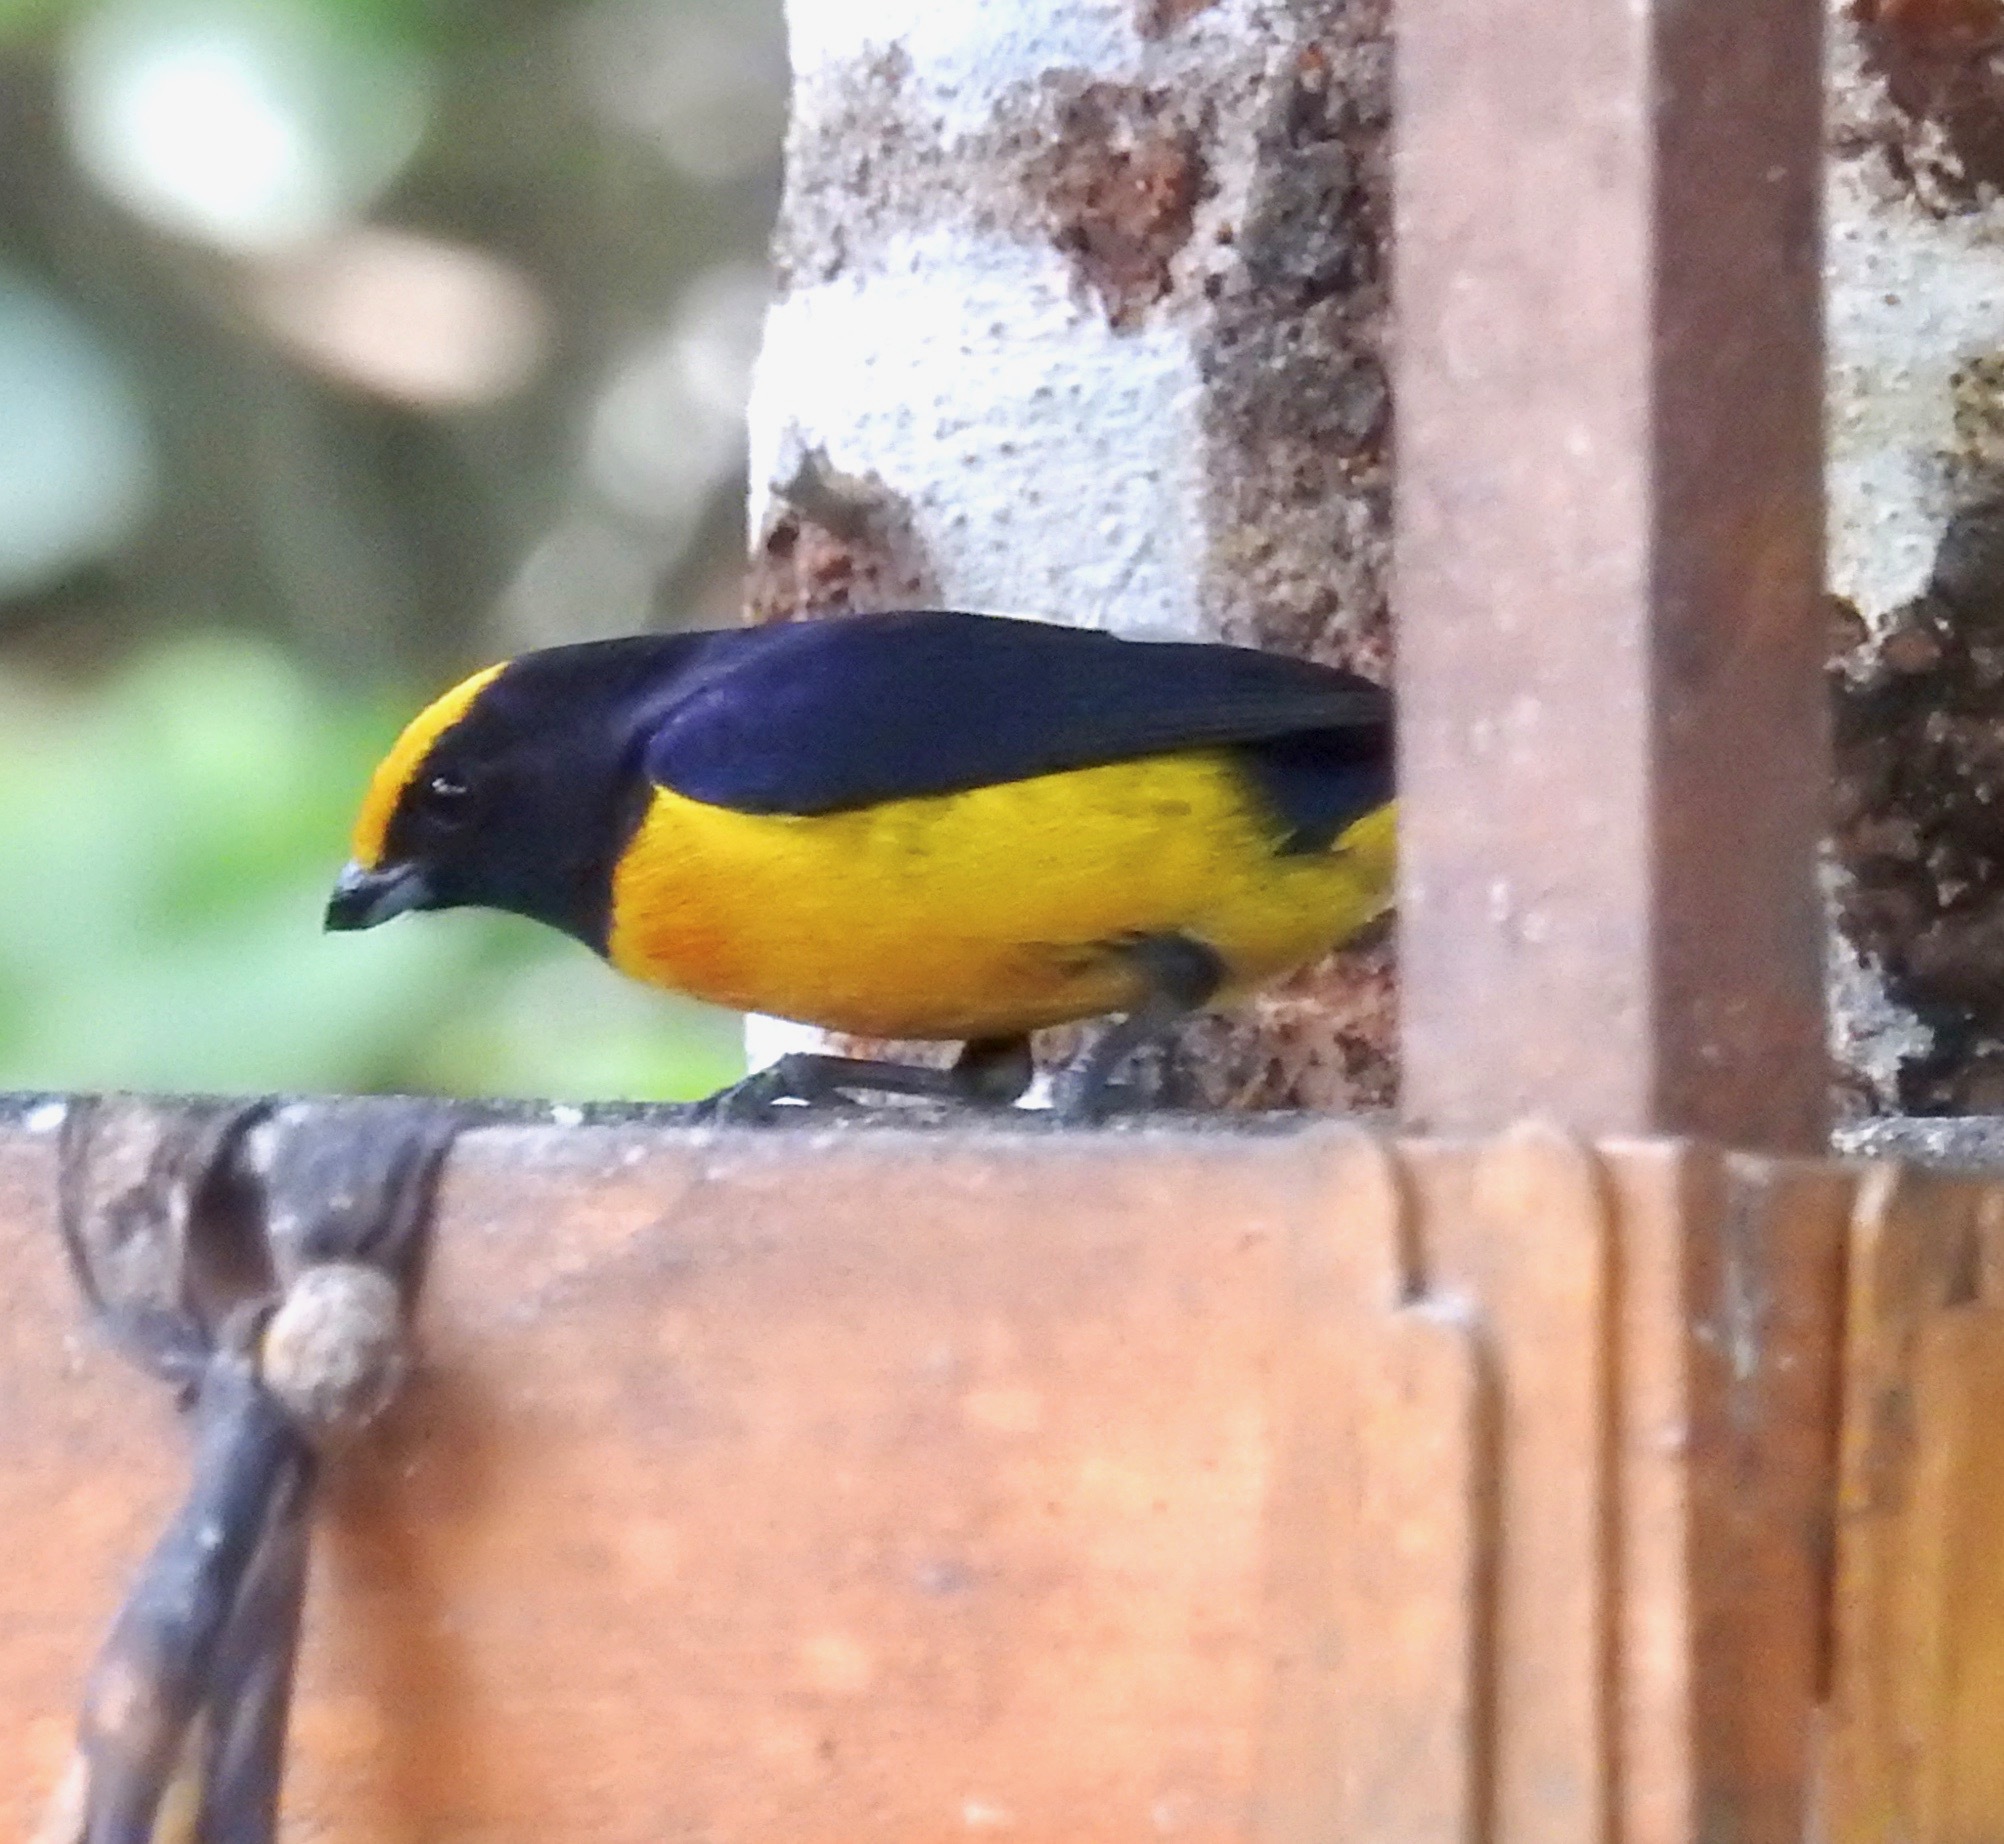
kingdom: Animalia
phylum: Chordata
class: Aves
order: Passeriformes
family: Fringillidae
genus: Euphonia
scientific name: Euphonia xanthogaster
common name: Orange-bellied euphonia
